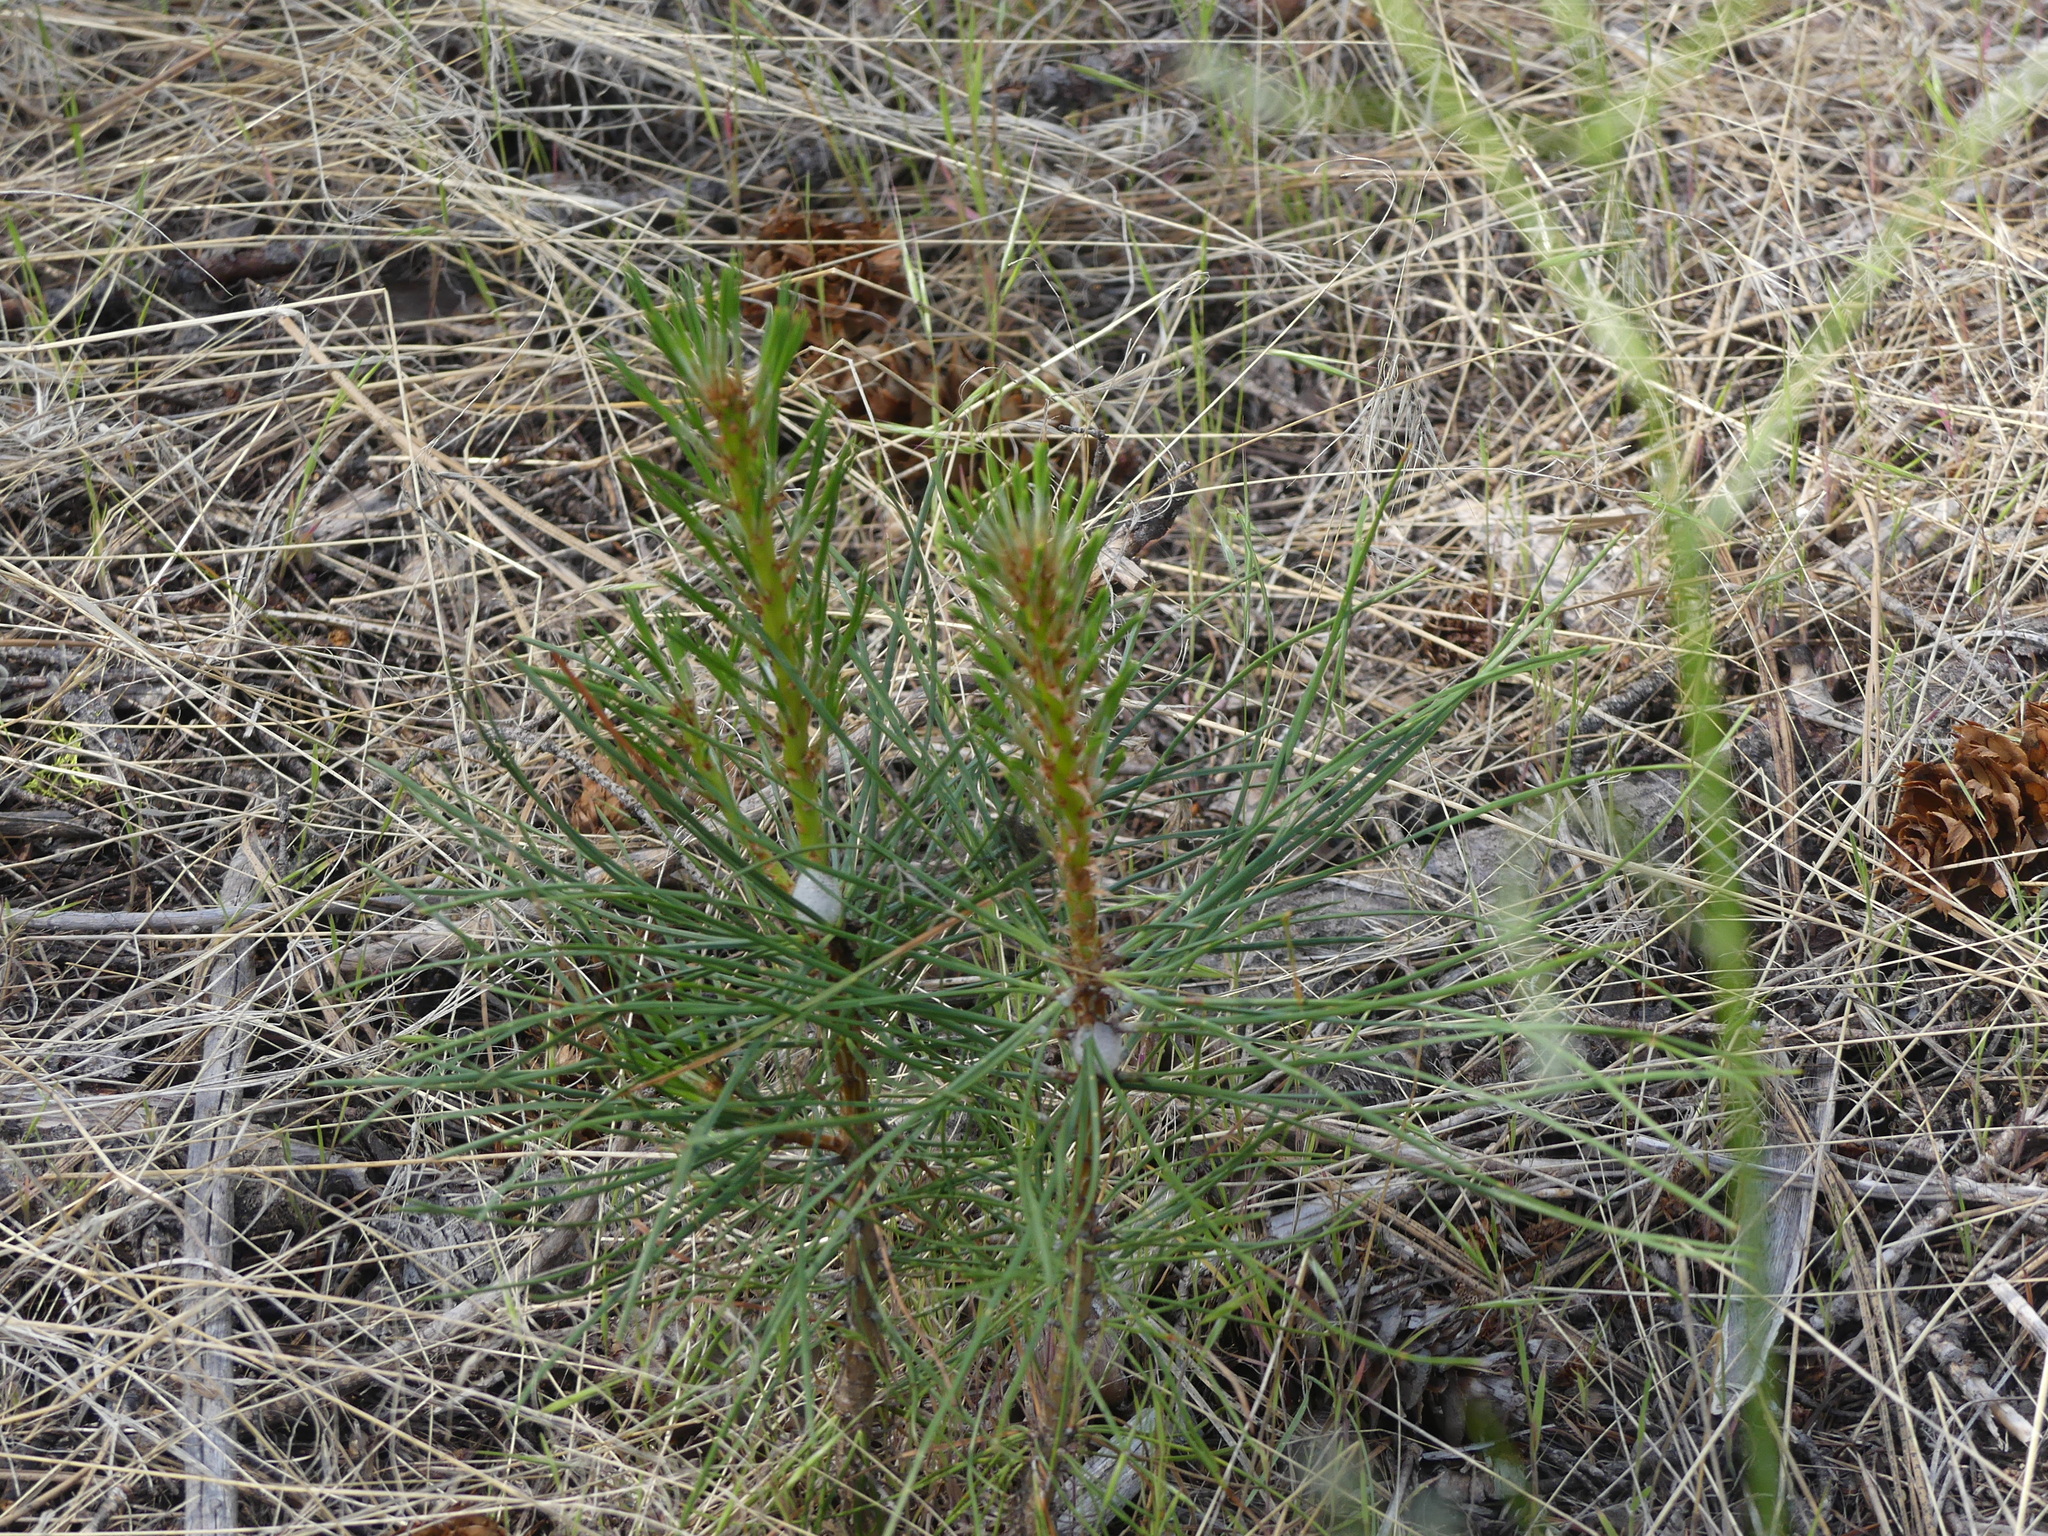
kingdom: Plantae
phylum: Tracheophyta
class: Pinopsida
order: Pinales
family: Pinaceae
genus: Pinus
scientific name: Pinus ponderosa
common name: Western yellow-pine
